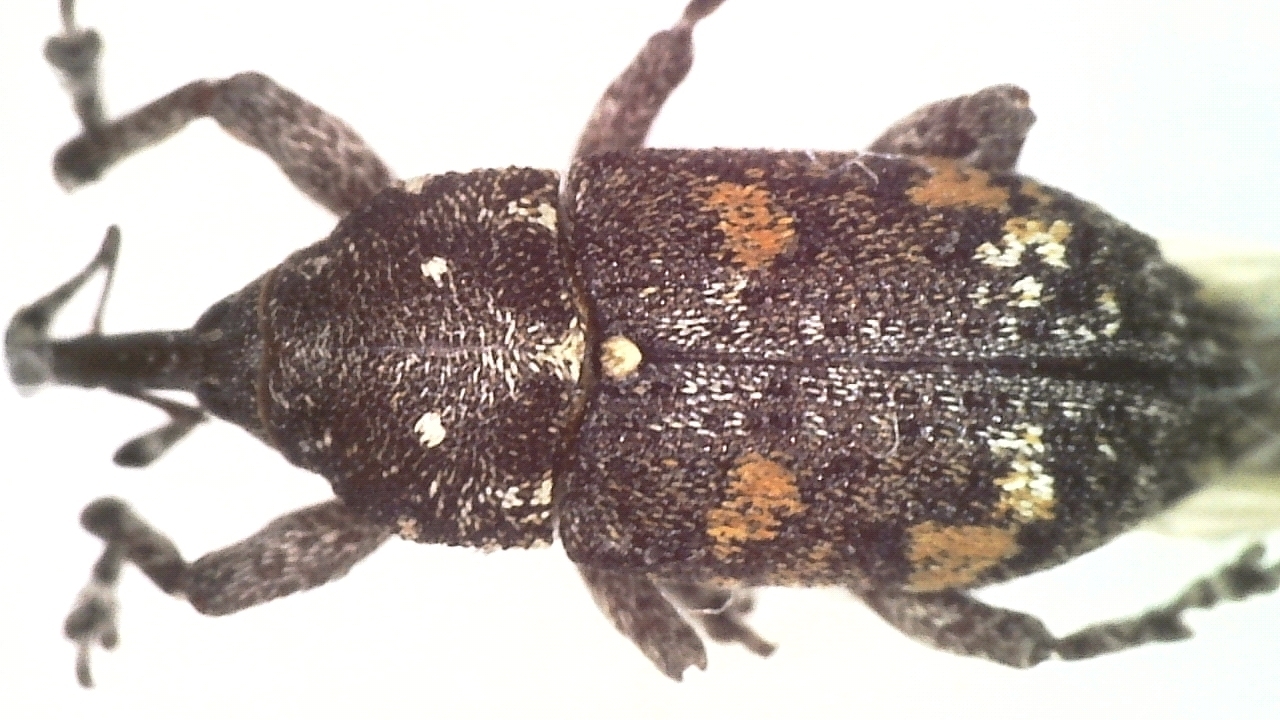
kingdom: Animalia
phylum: Arthropoda
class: Insecta
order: Coleoptera
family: Curculionidae
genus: Pissodes
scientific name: Pissodes castaneus
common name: Banded pine weevil
